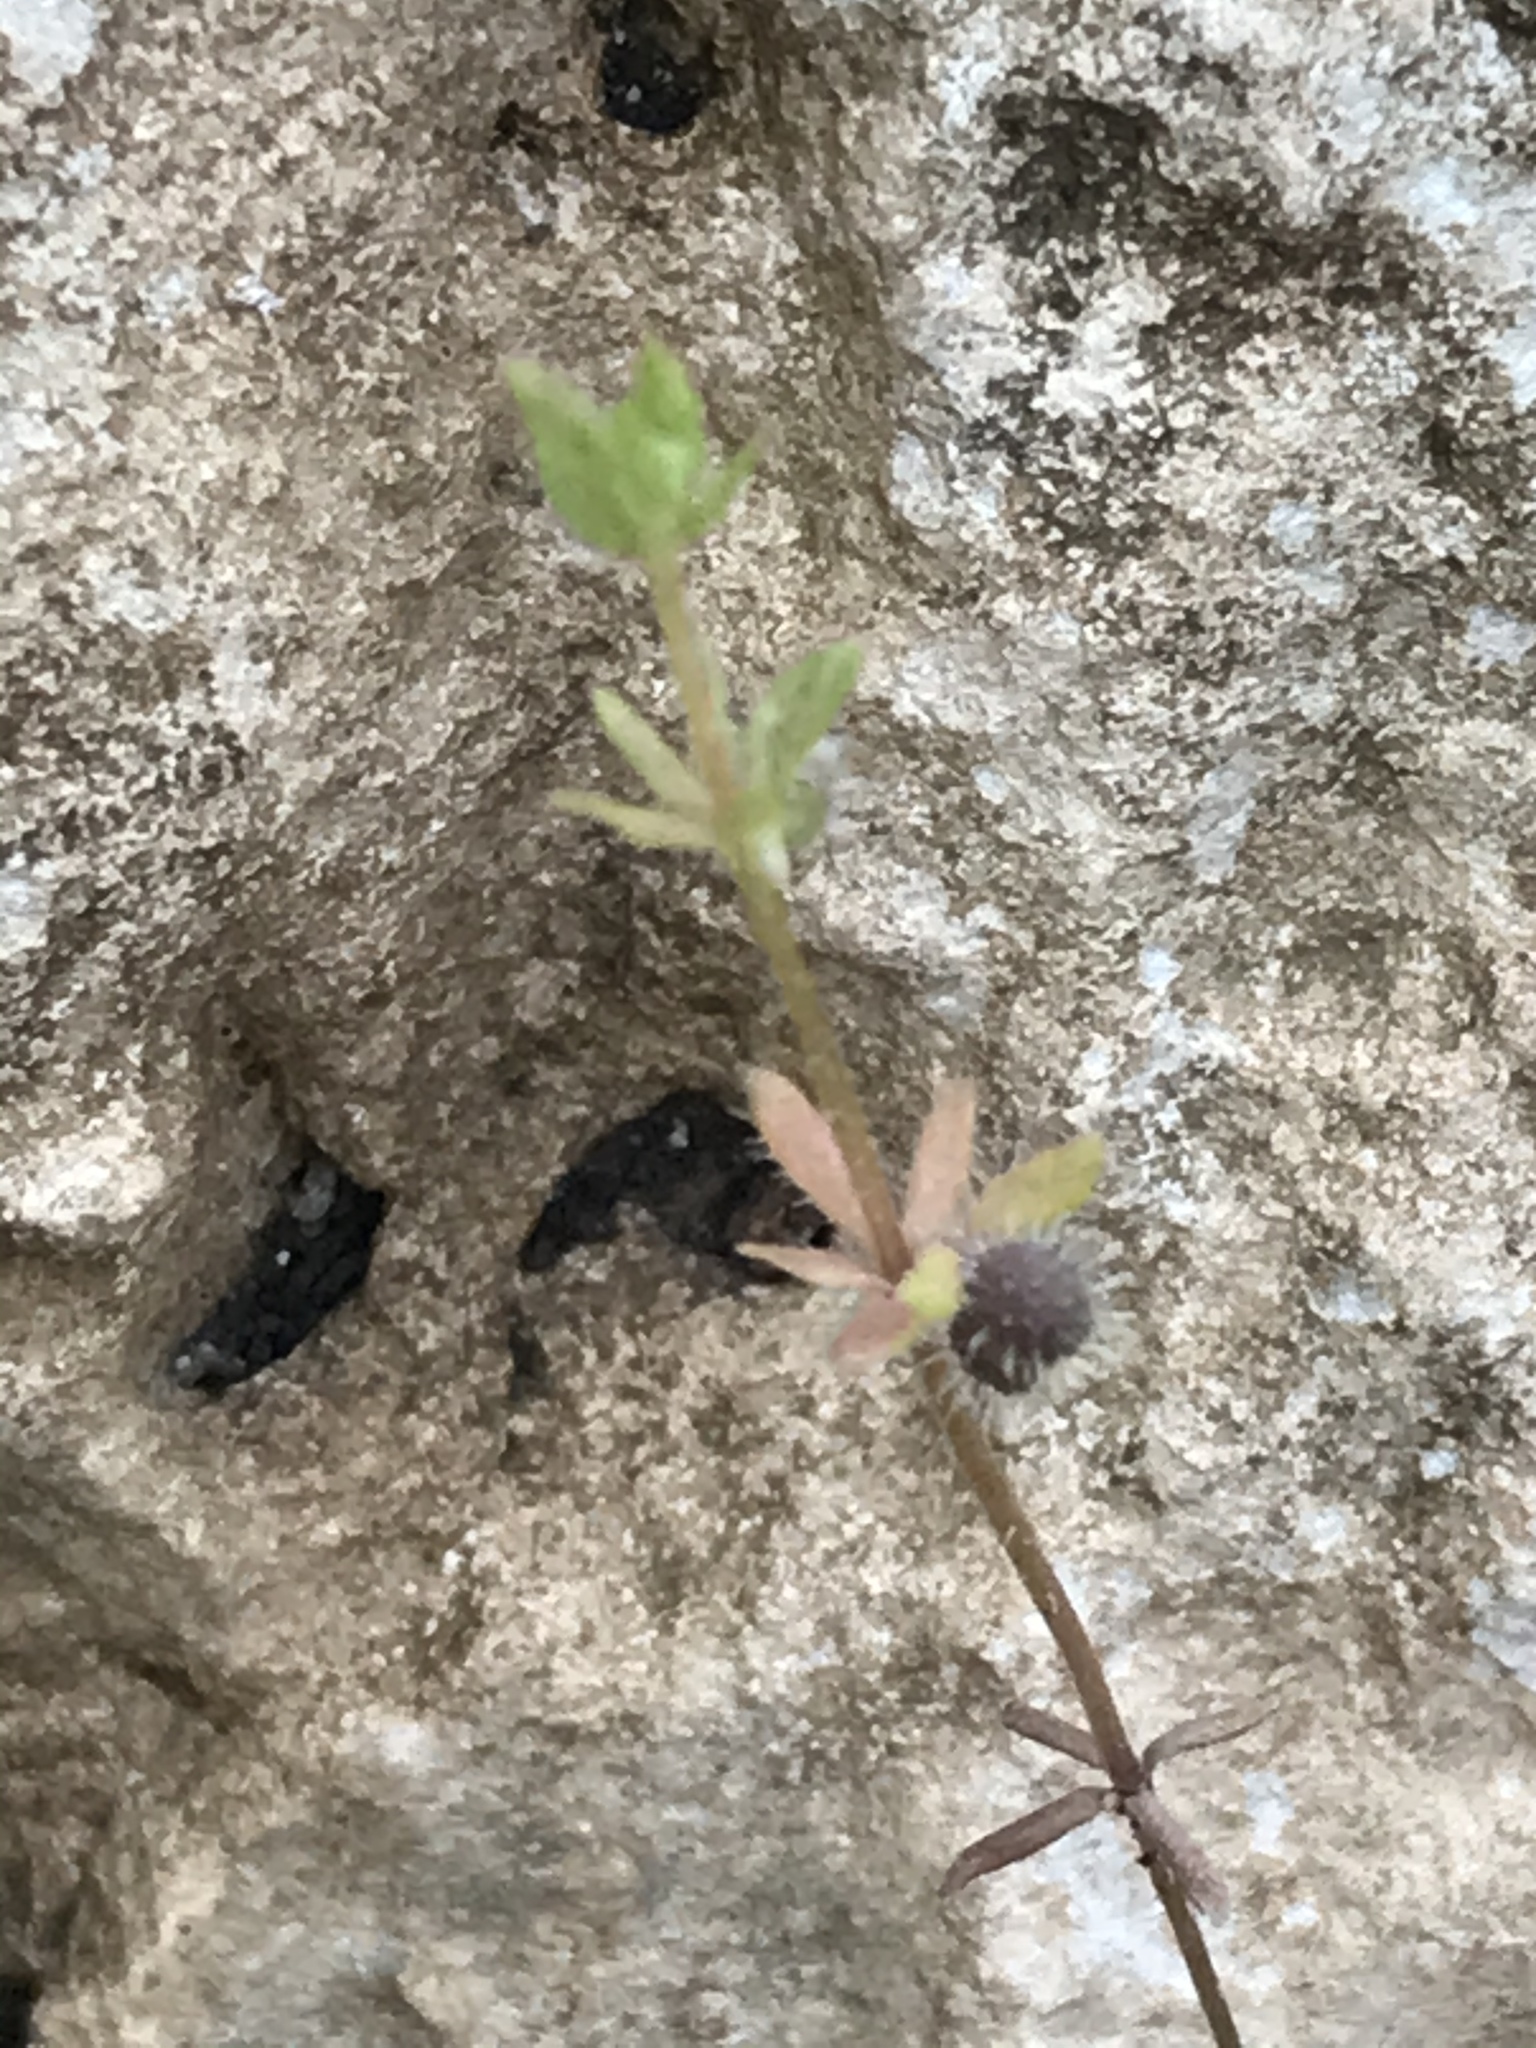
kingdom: Plantae
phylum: Tracheophyta
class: Magnoliopsida
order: Gentianales
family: Rubiaceae
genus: Galium
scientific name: Galium virgatum
